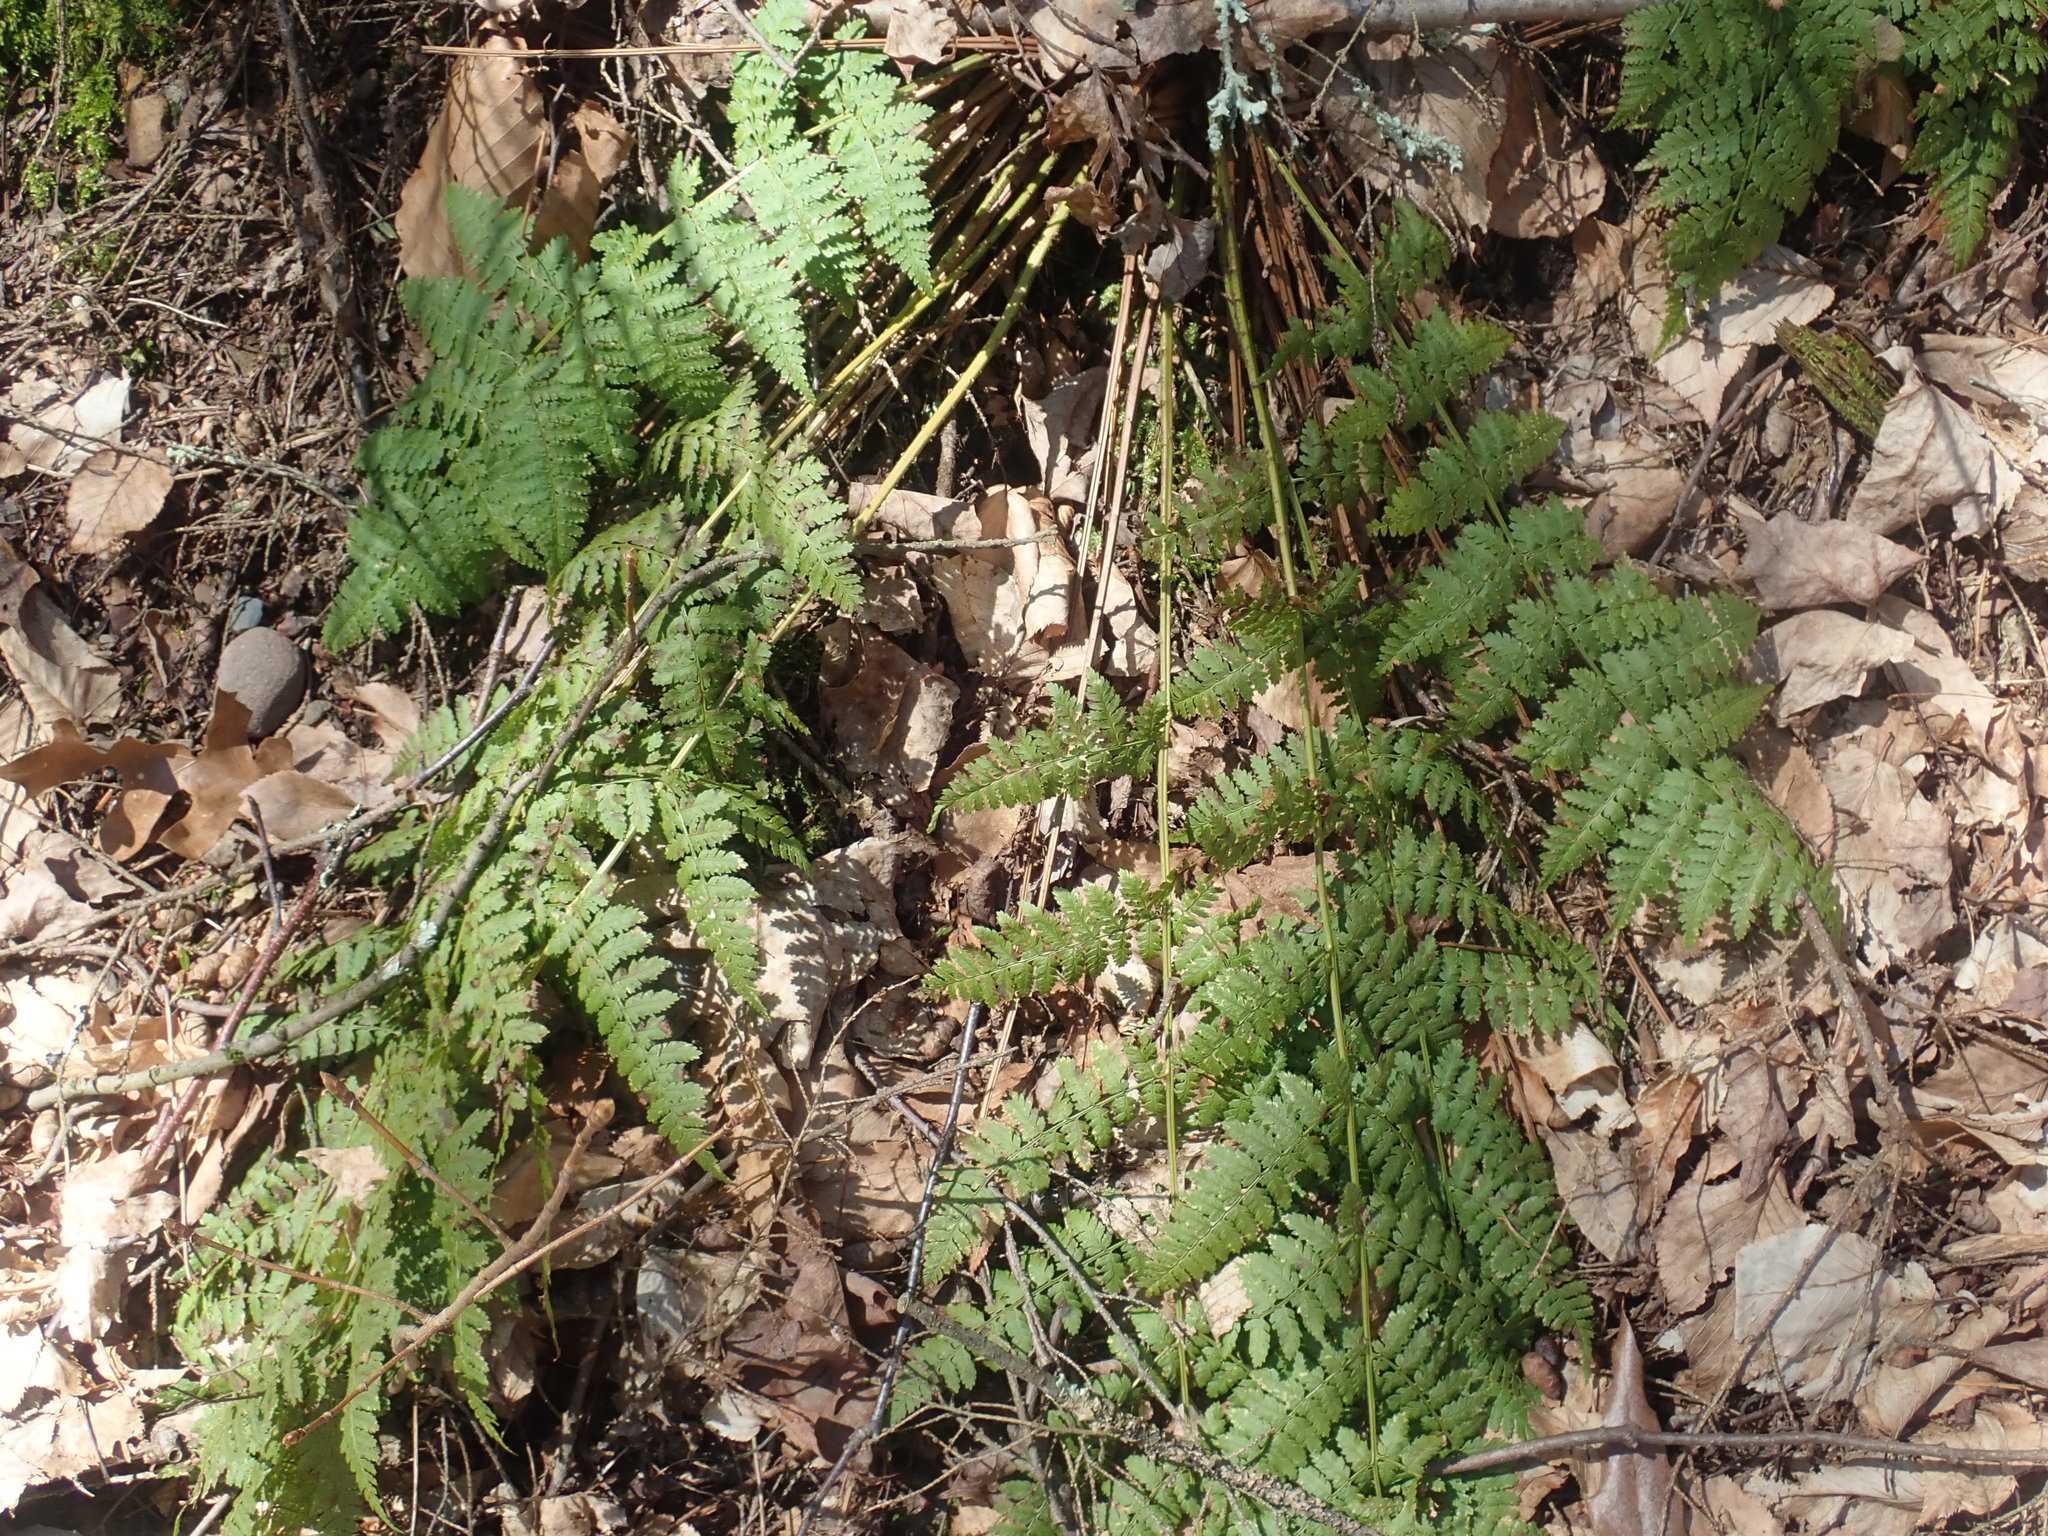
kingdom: Plantae
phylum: Tracheophyta
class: Polypodiopsida
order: Polypodiales
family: Dryopteridaceae
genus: Dryopteris
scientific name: Dryopteris intermedia
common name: Evergreen wood fern
